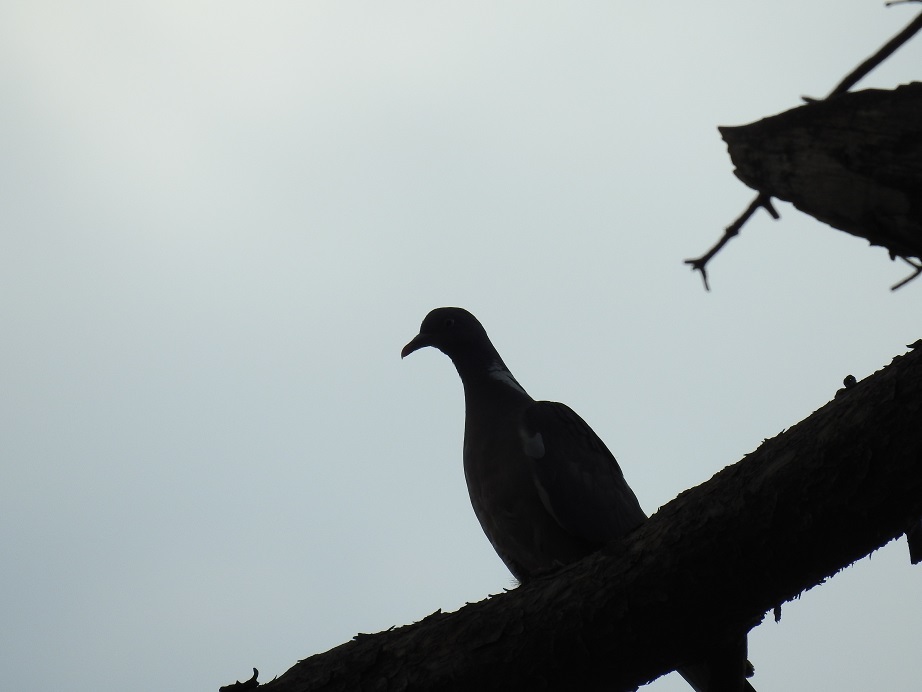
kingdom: Animalia
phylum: Chordata
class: Aves
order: Columbiformes
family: Columbidae
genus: Columba
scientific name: Columba palumbus
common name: Common wood pigeon
